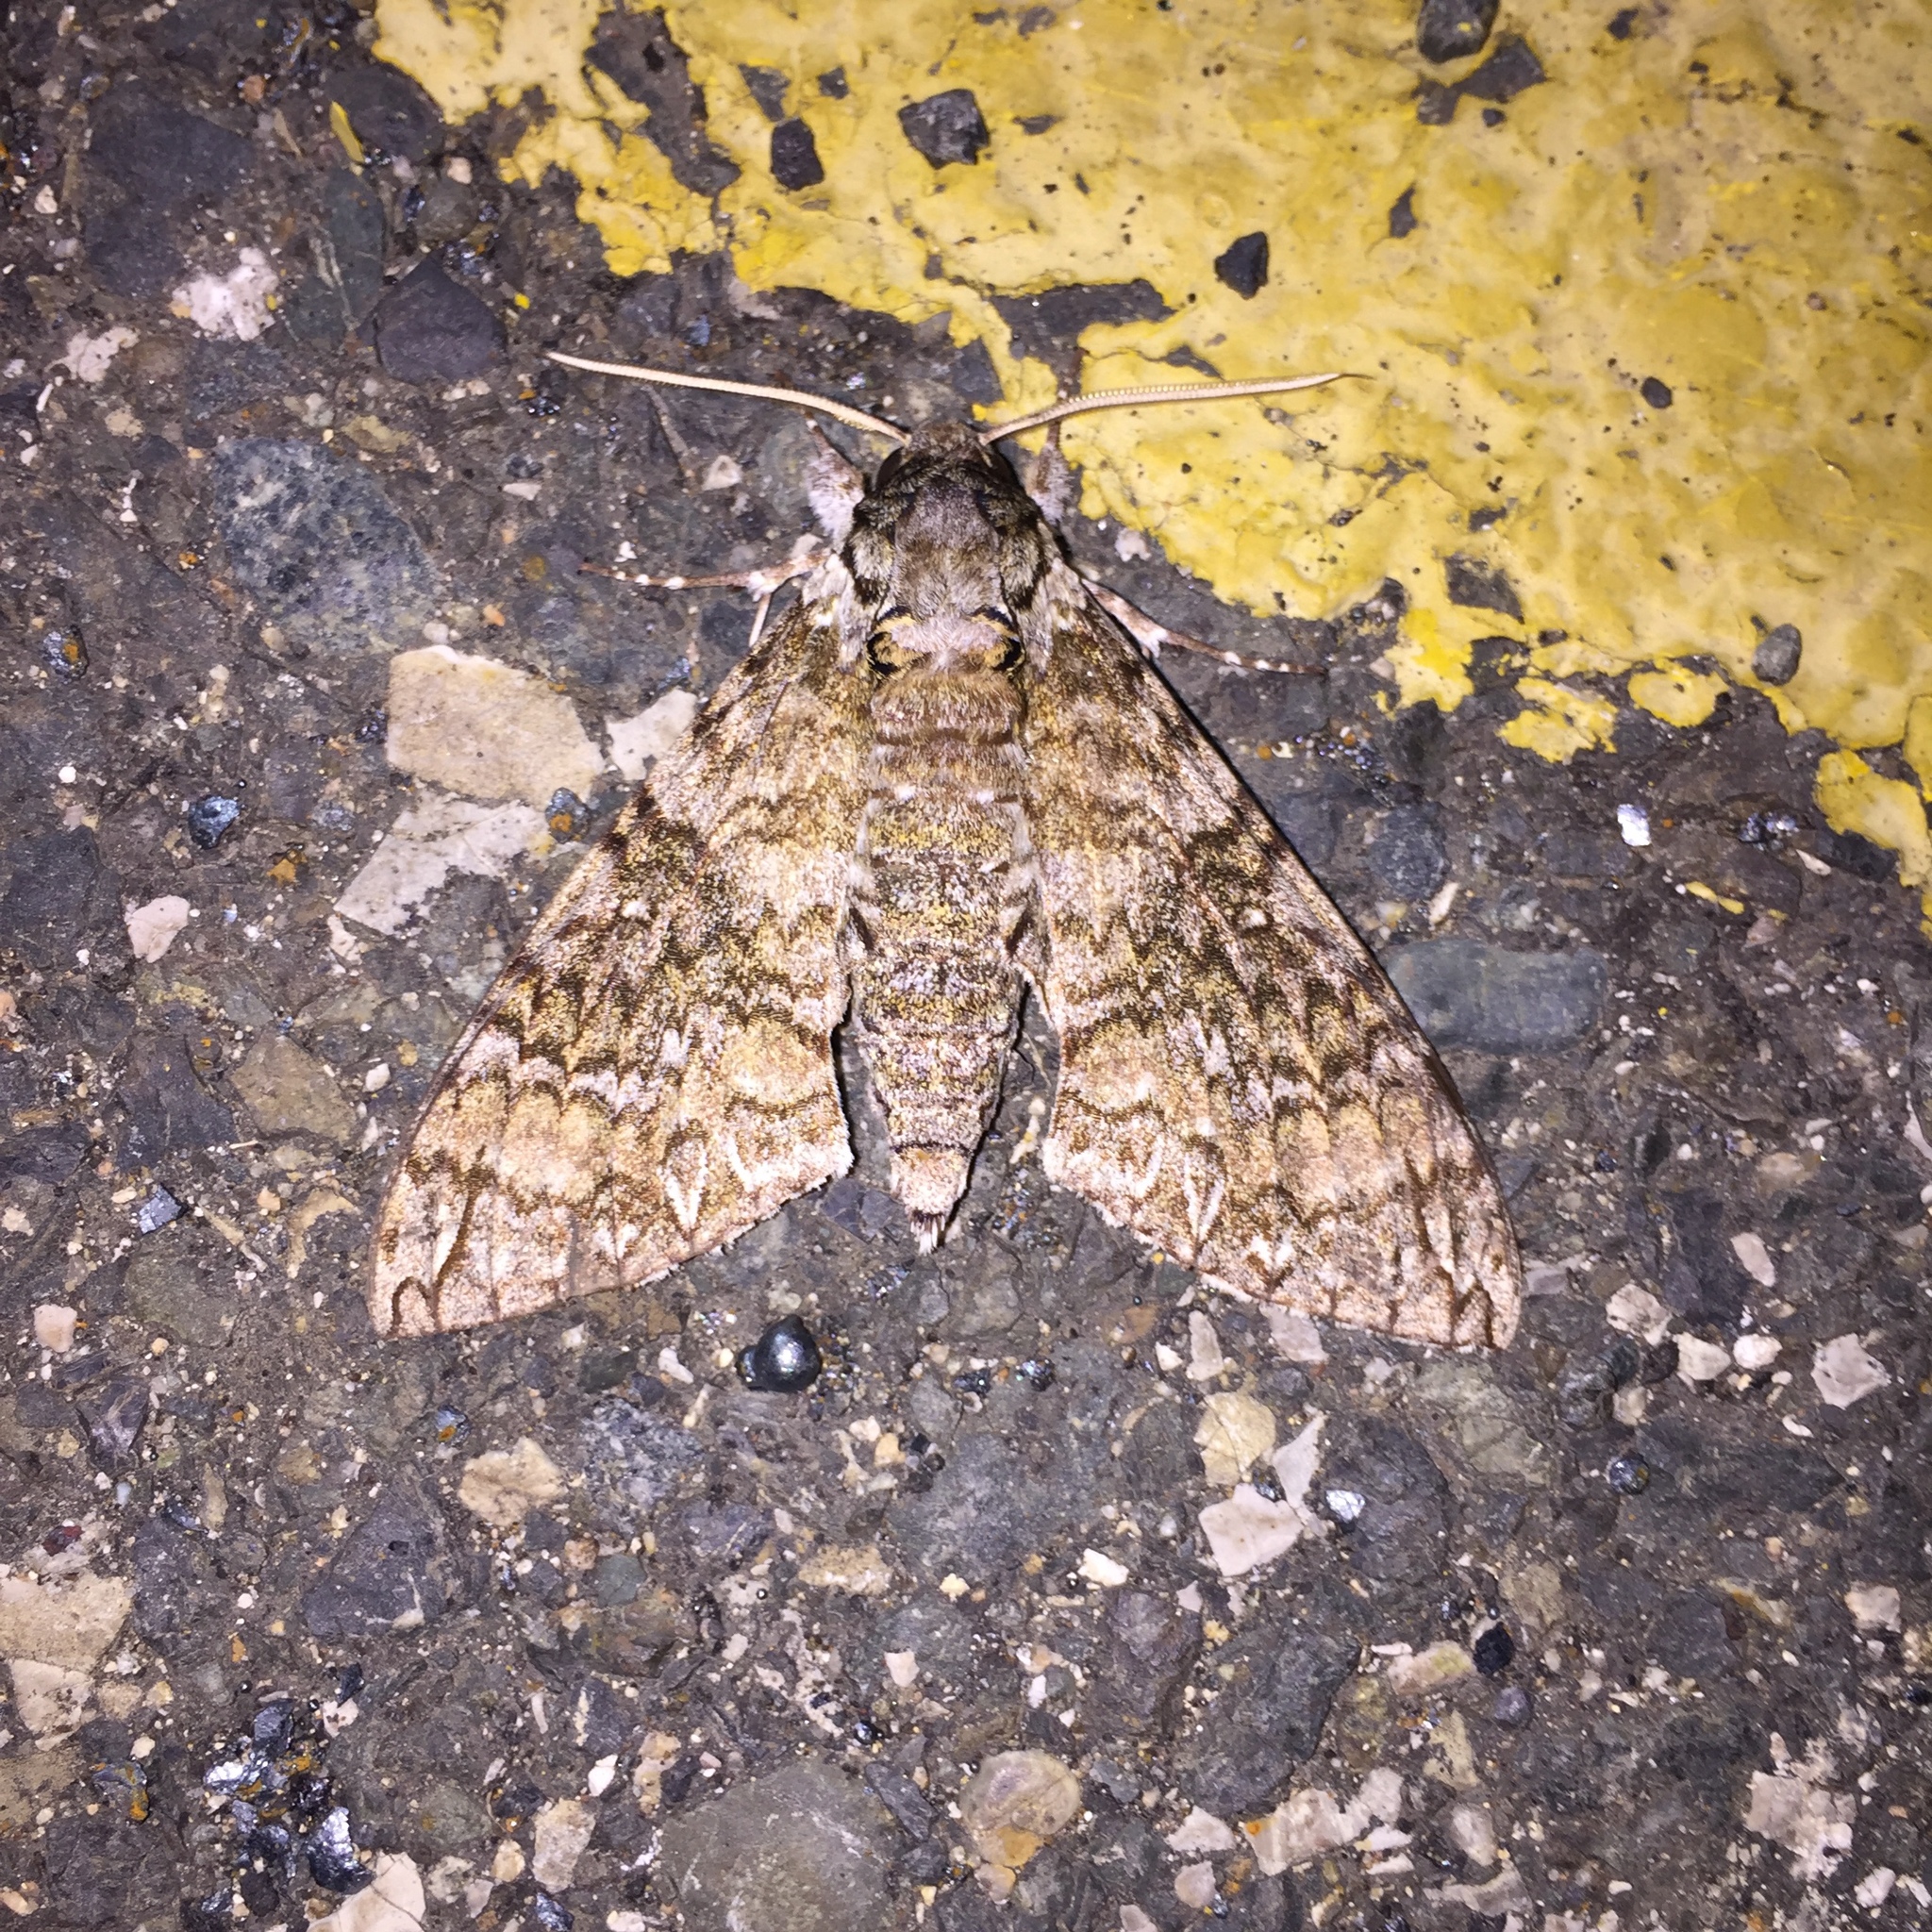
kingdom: Animalia
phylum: Arthropoda
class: Insecta
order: Lepidoptera
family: Sphingidae
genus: Manduca
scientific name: Manduca brontes
